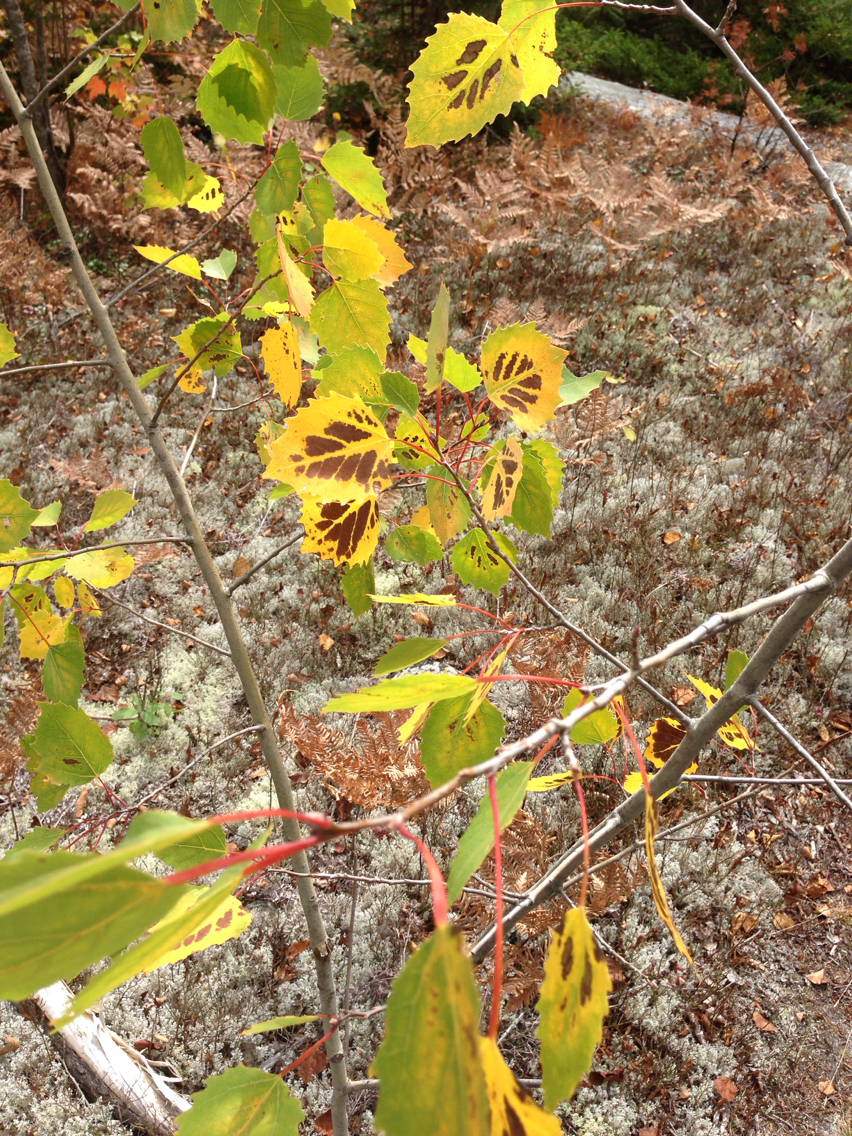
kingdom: Plantae
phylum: Tracheophyta
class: Magnoliopsida
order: Malpighiales
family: Salicaceae
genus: Populus
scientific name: Populus grandidentata
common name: Bigtooth aspen
